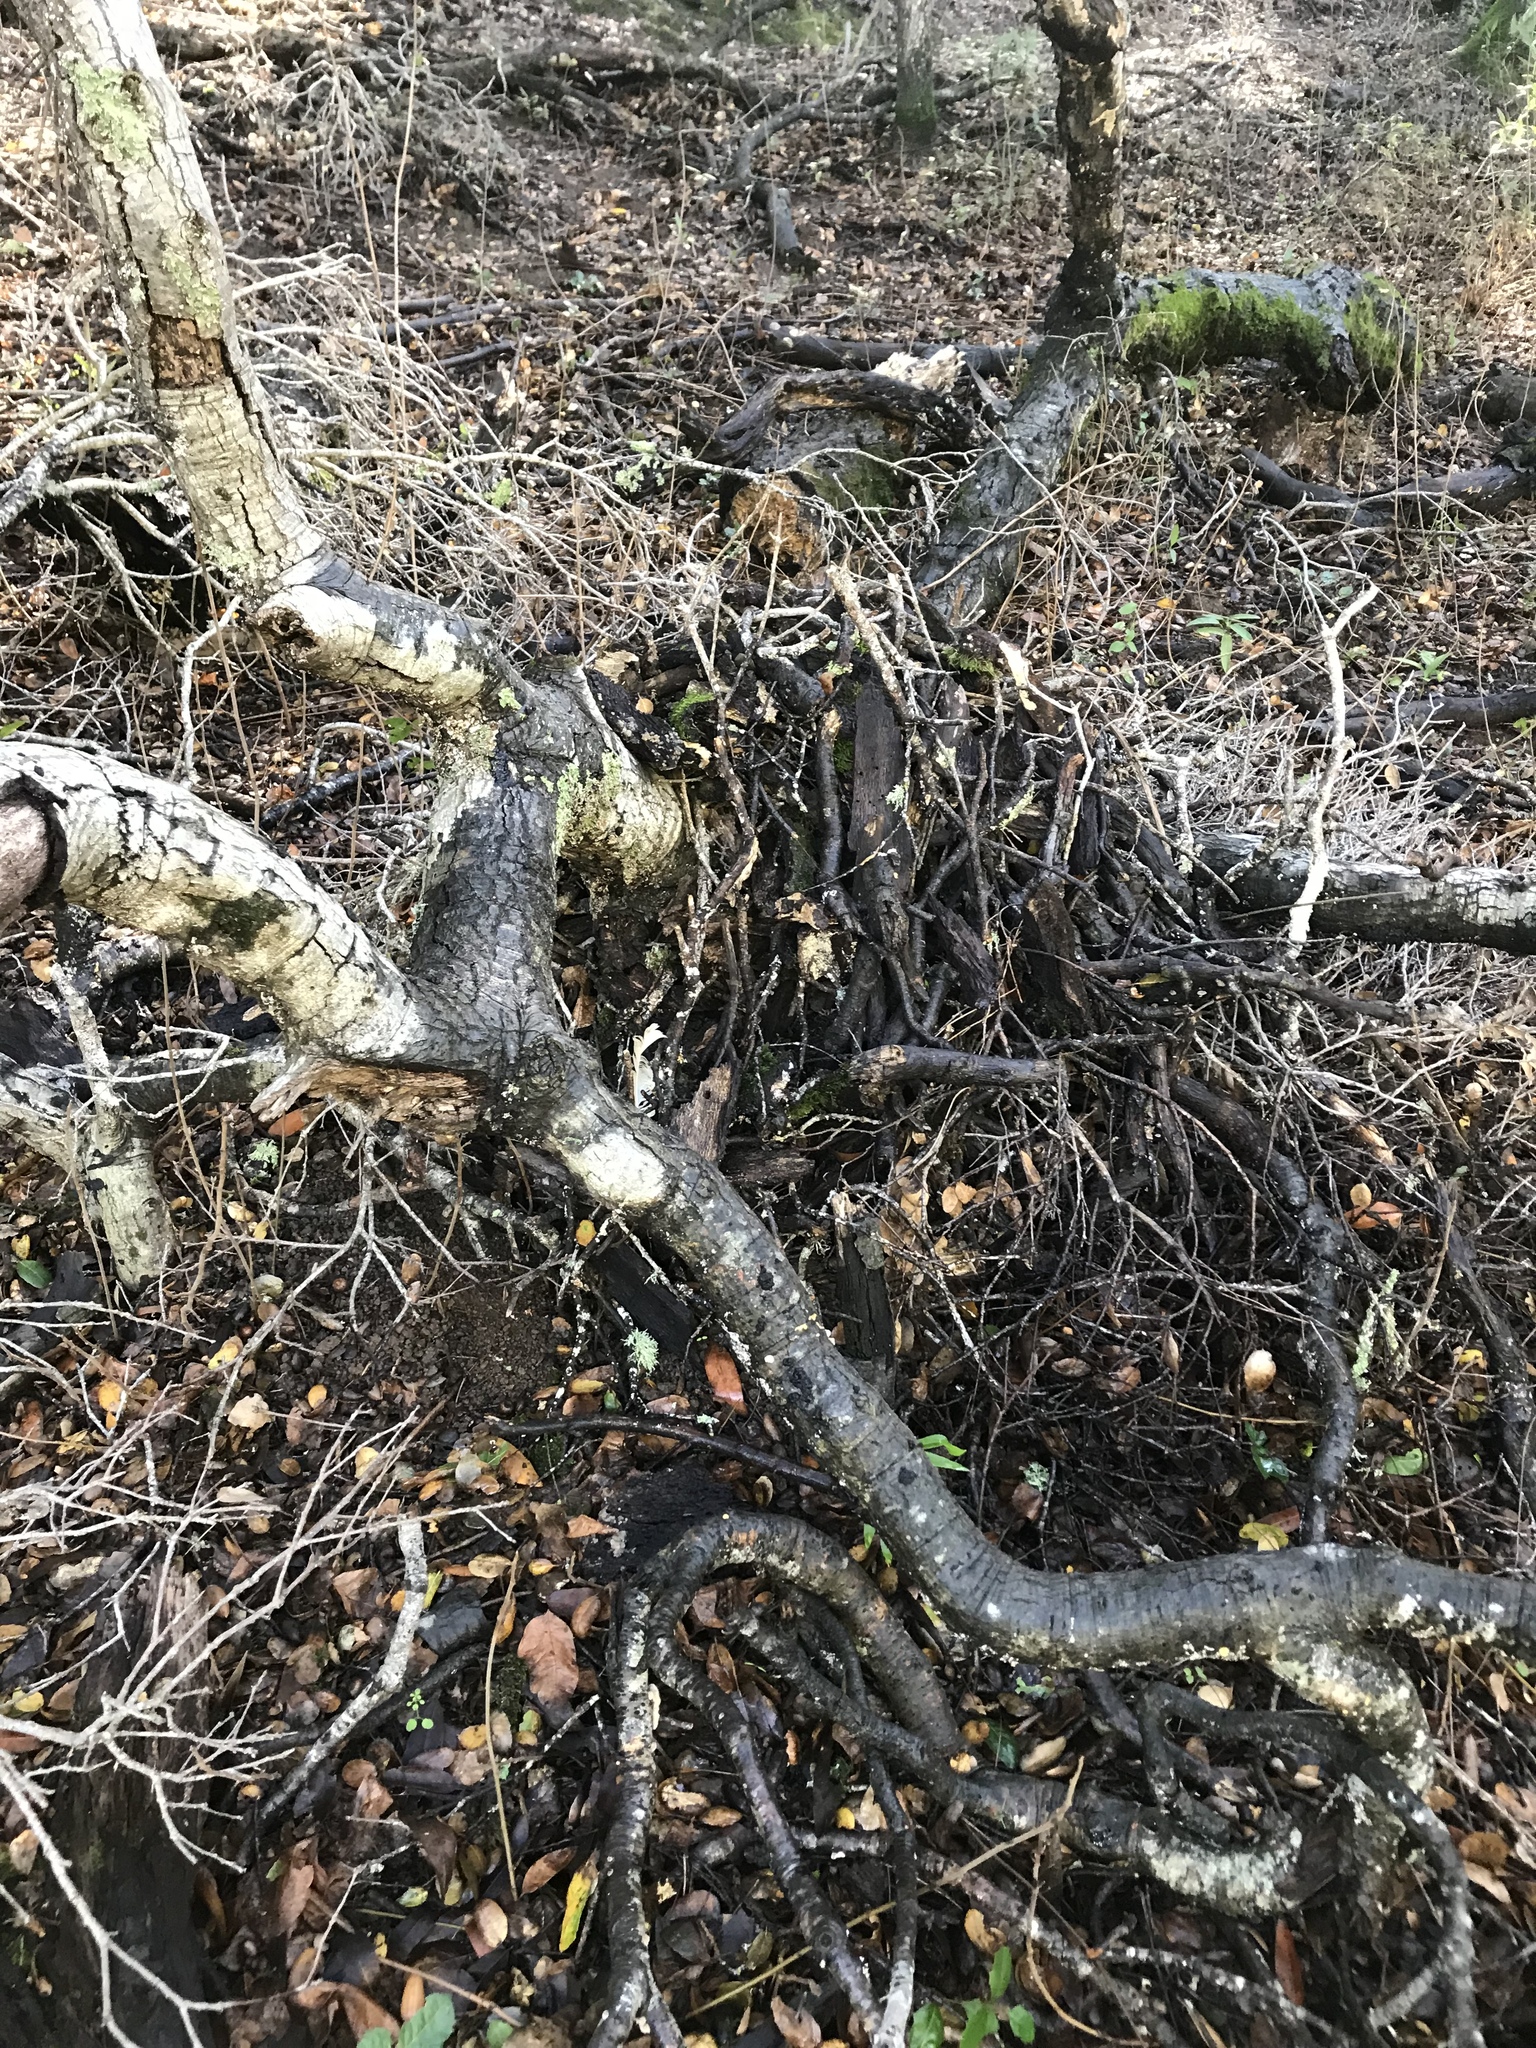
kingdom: Animalia
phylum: Chordata
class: Mammalia
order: Rodentia
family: Cricetidae
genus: Neotoma
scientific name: Neotoma fuscipes
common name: Dusky-footed woodrat
